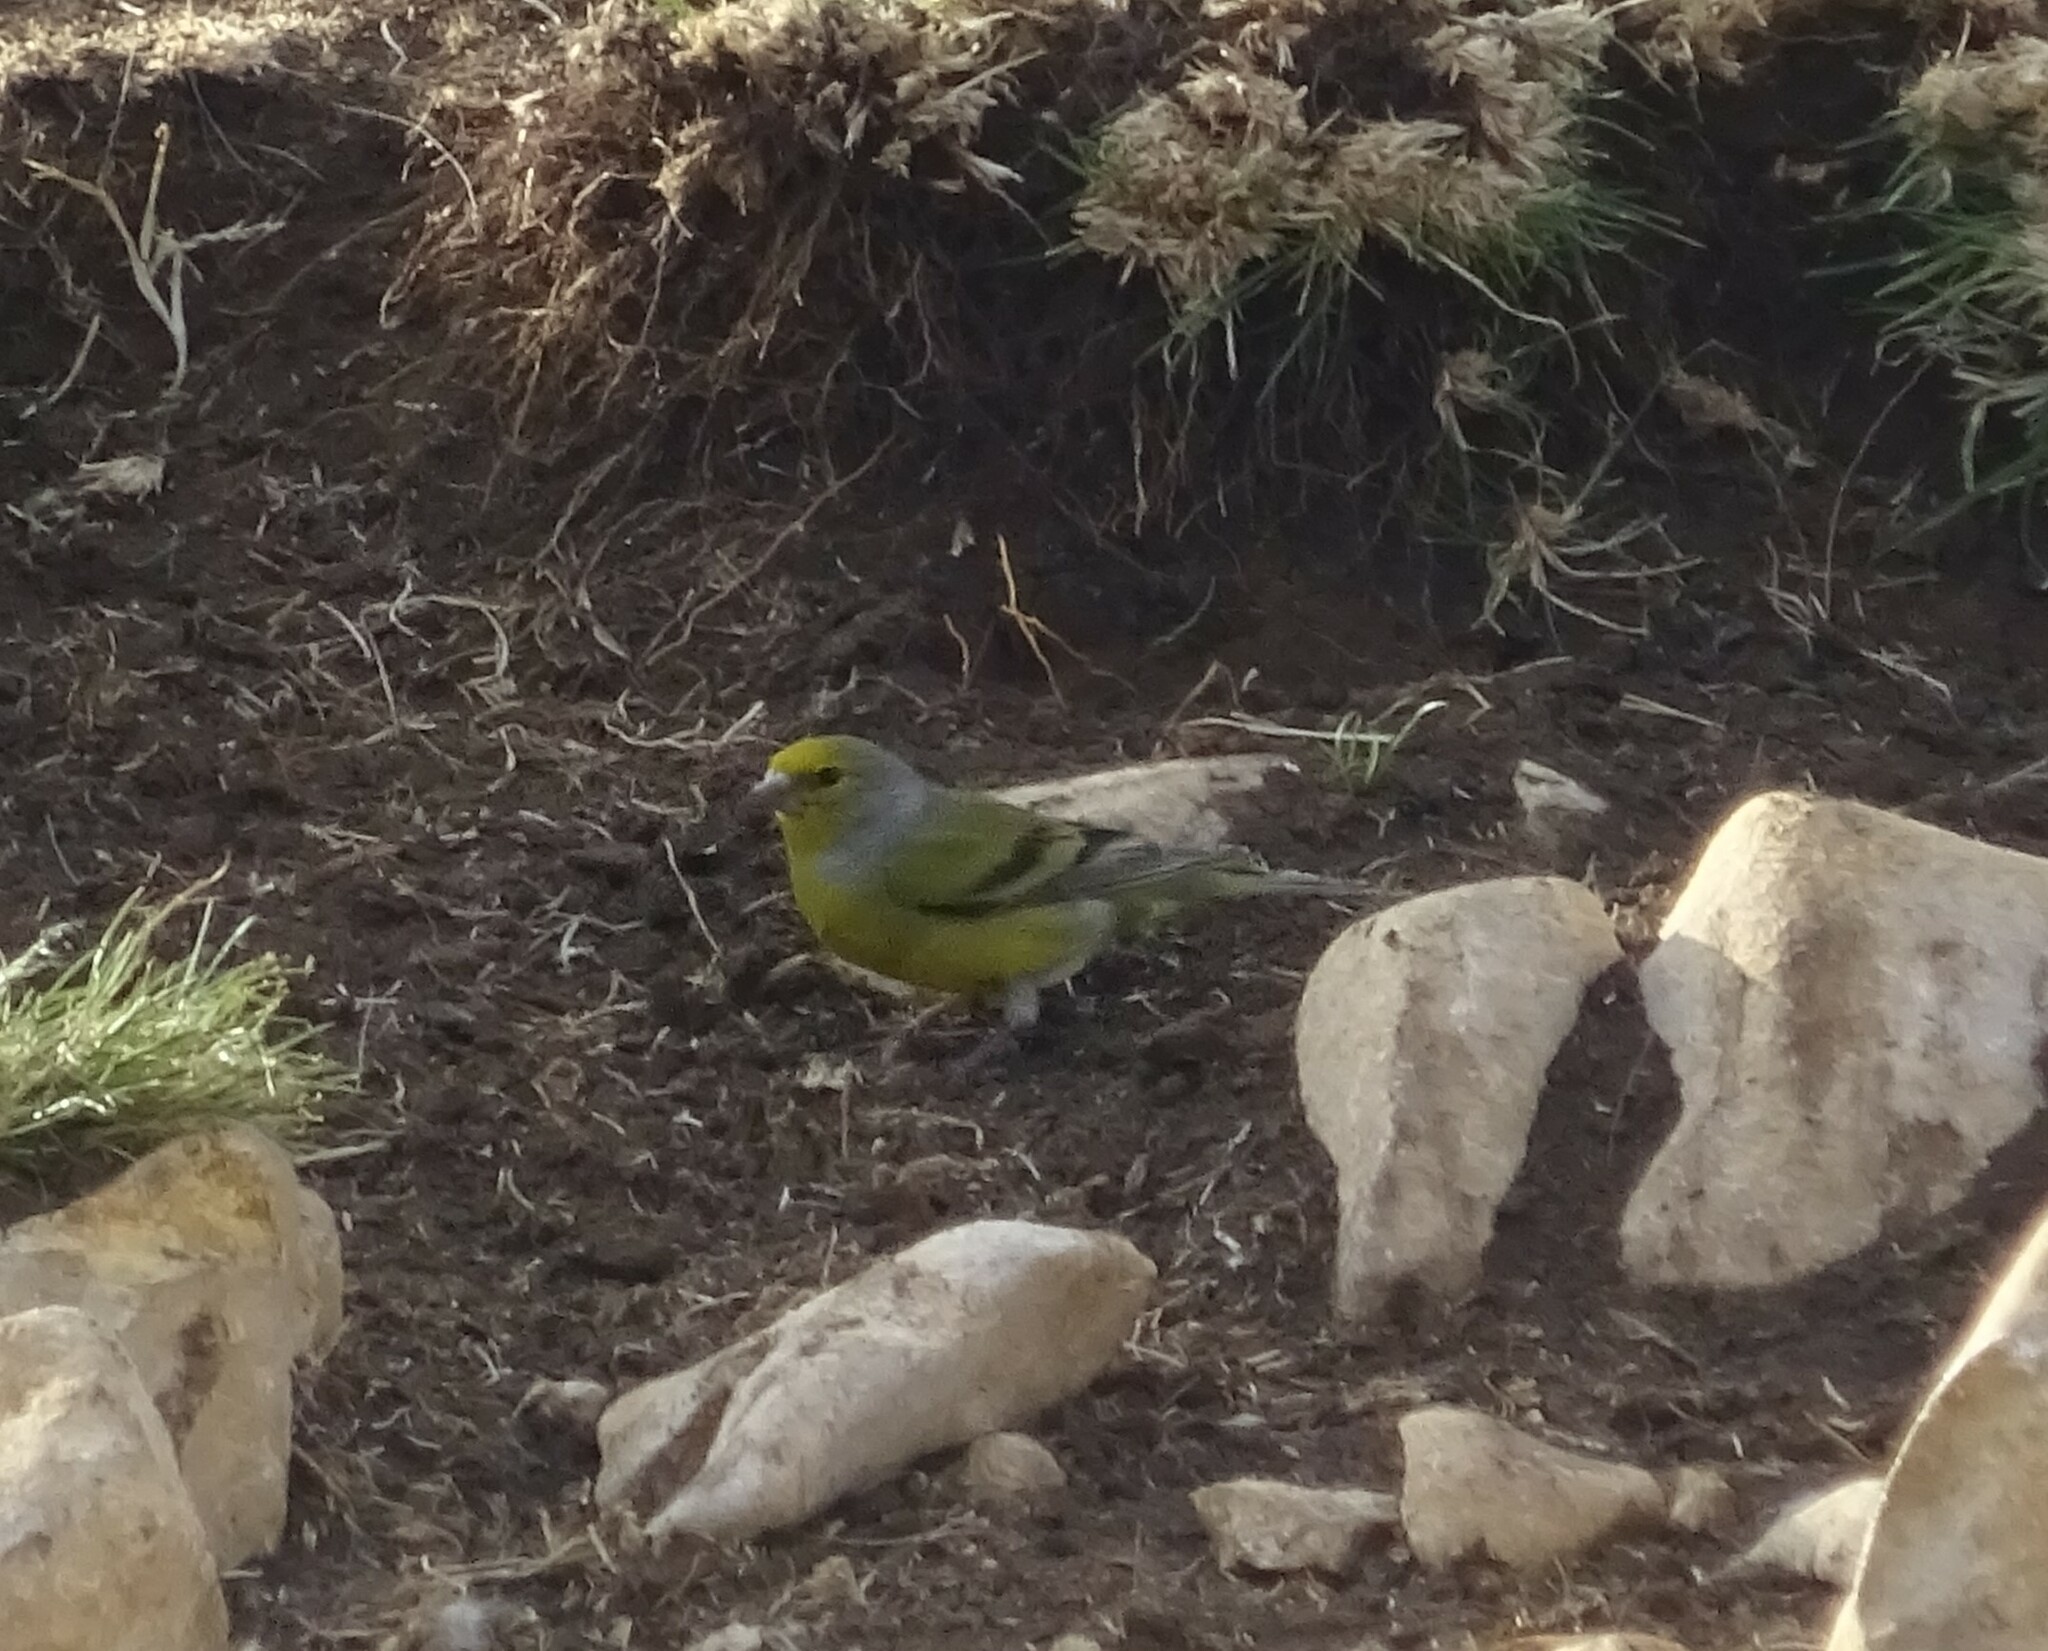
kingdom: Animalia
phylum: Chordata
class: Aves
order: Passeriformes
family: Fringillidae
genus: Carduelis
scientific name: Carduelis citrinella
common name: Citril finch
